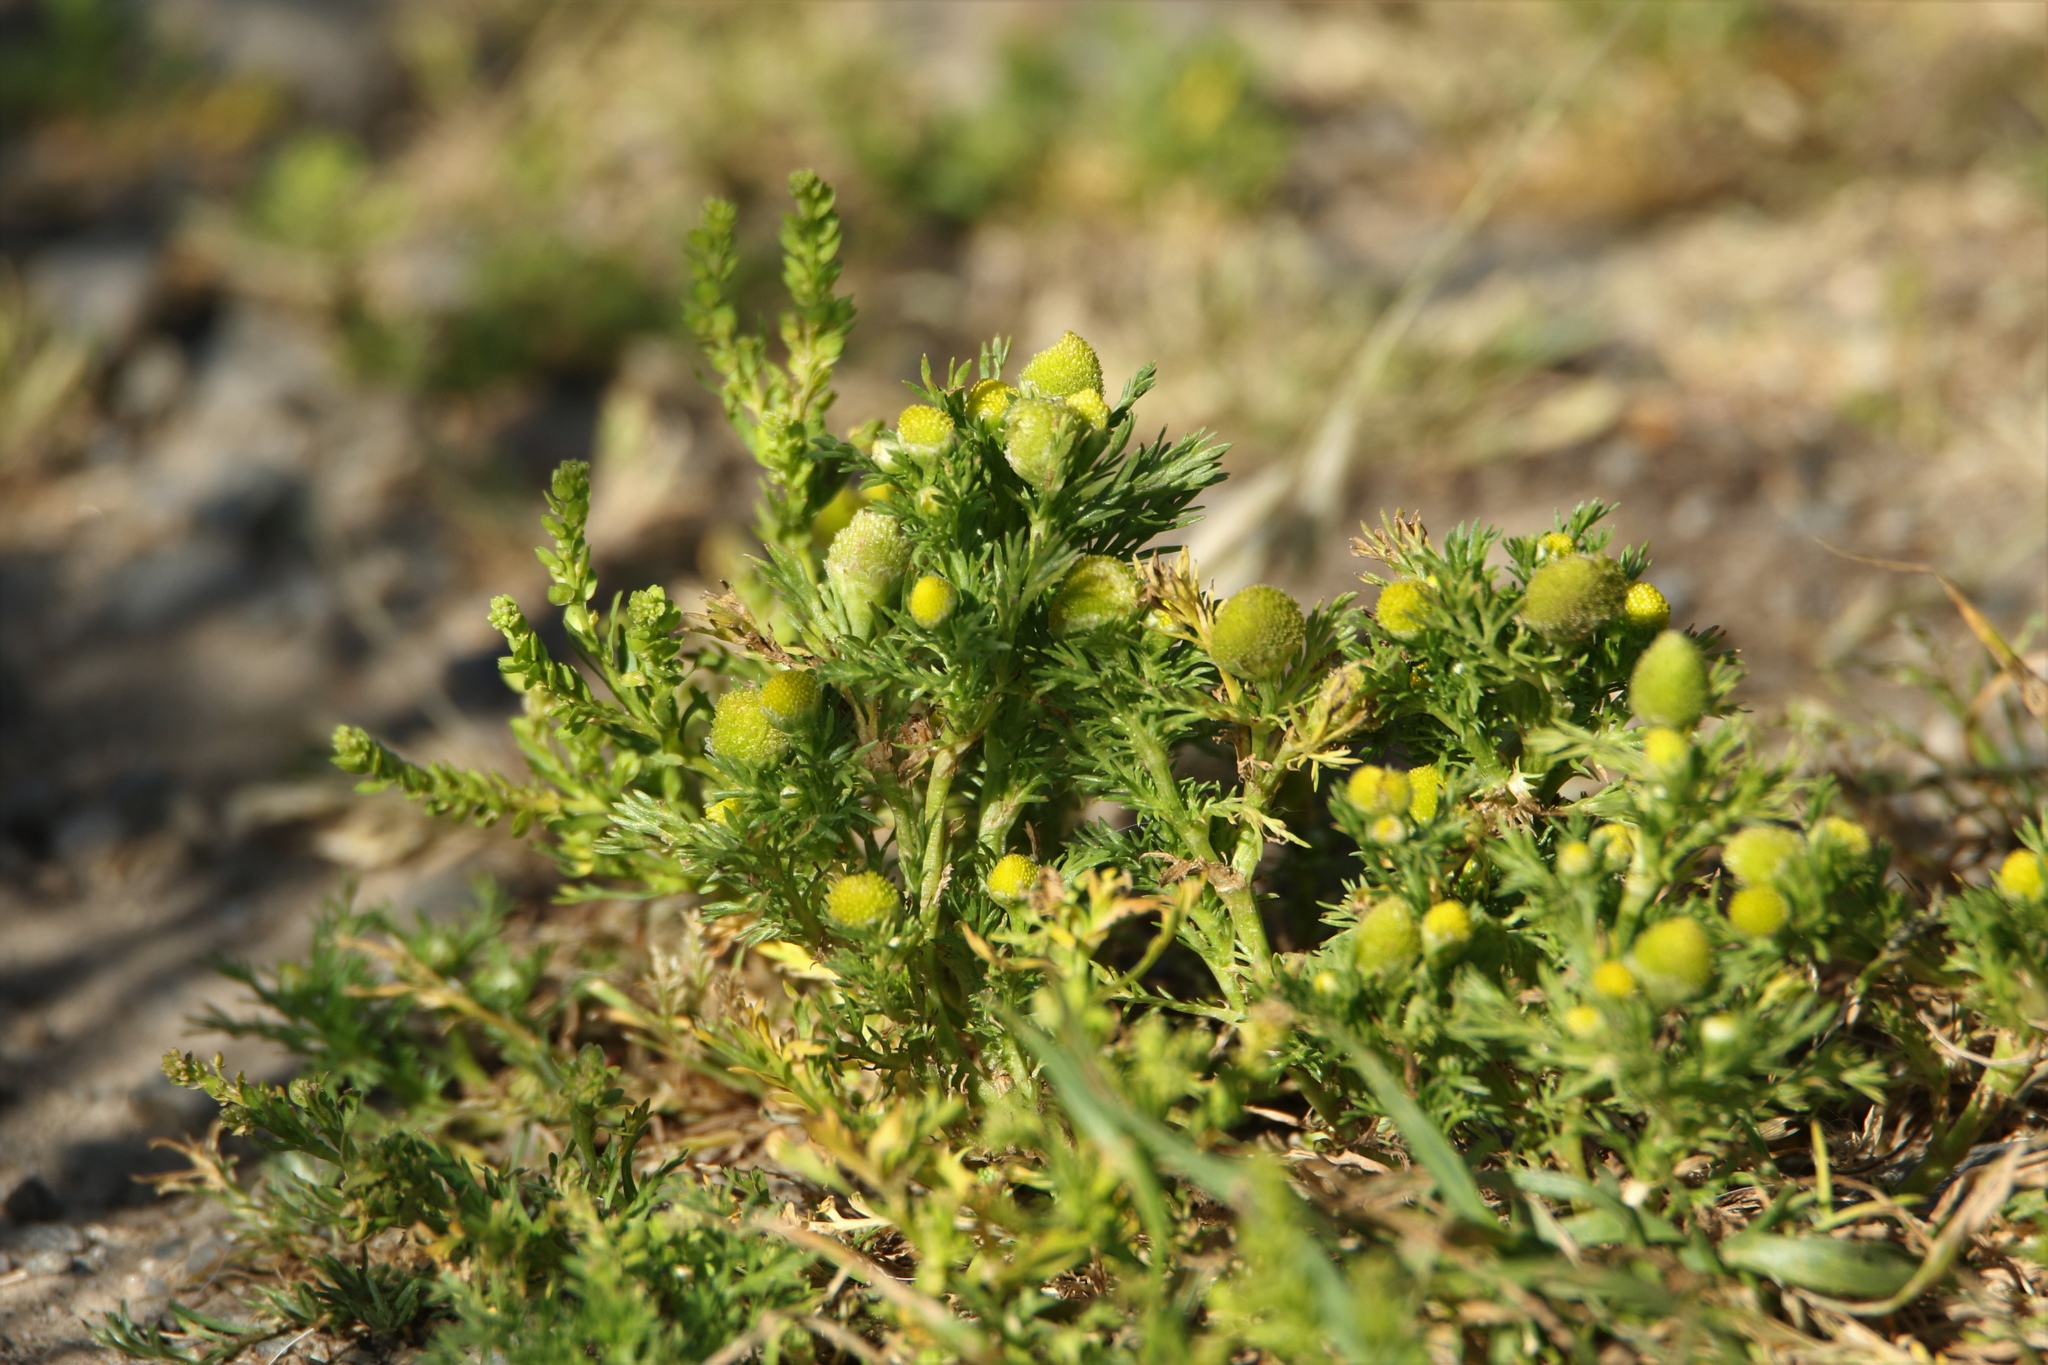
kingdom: Plantae
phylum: Tracheophyta
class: Magnoliopsida
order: Asterales
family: Asteraceae
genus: Matricaria
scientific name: Matricaria discoidea
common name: Disc mayweed
